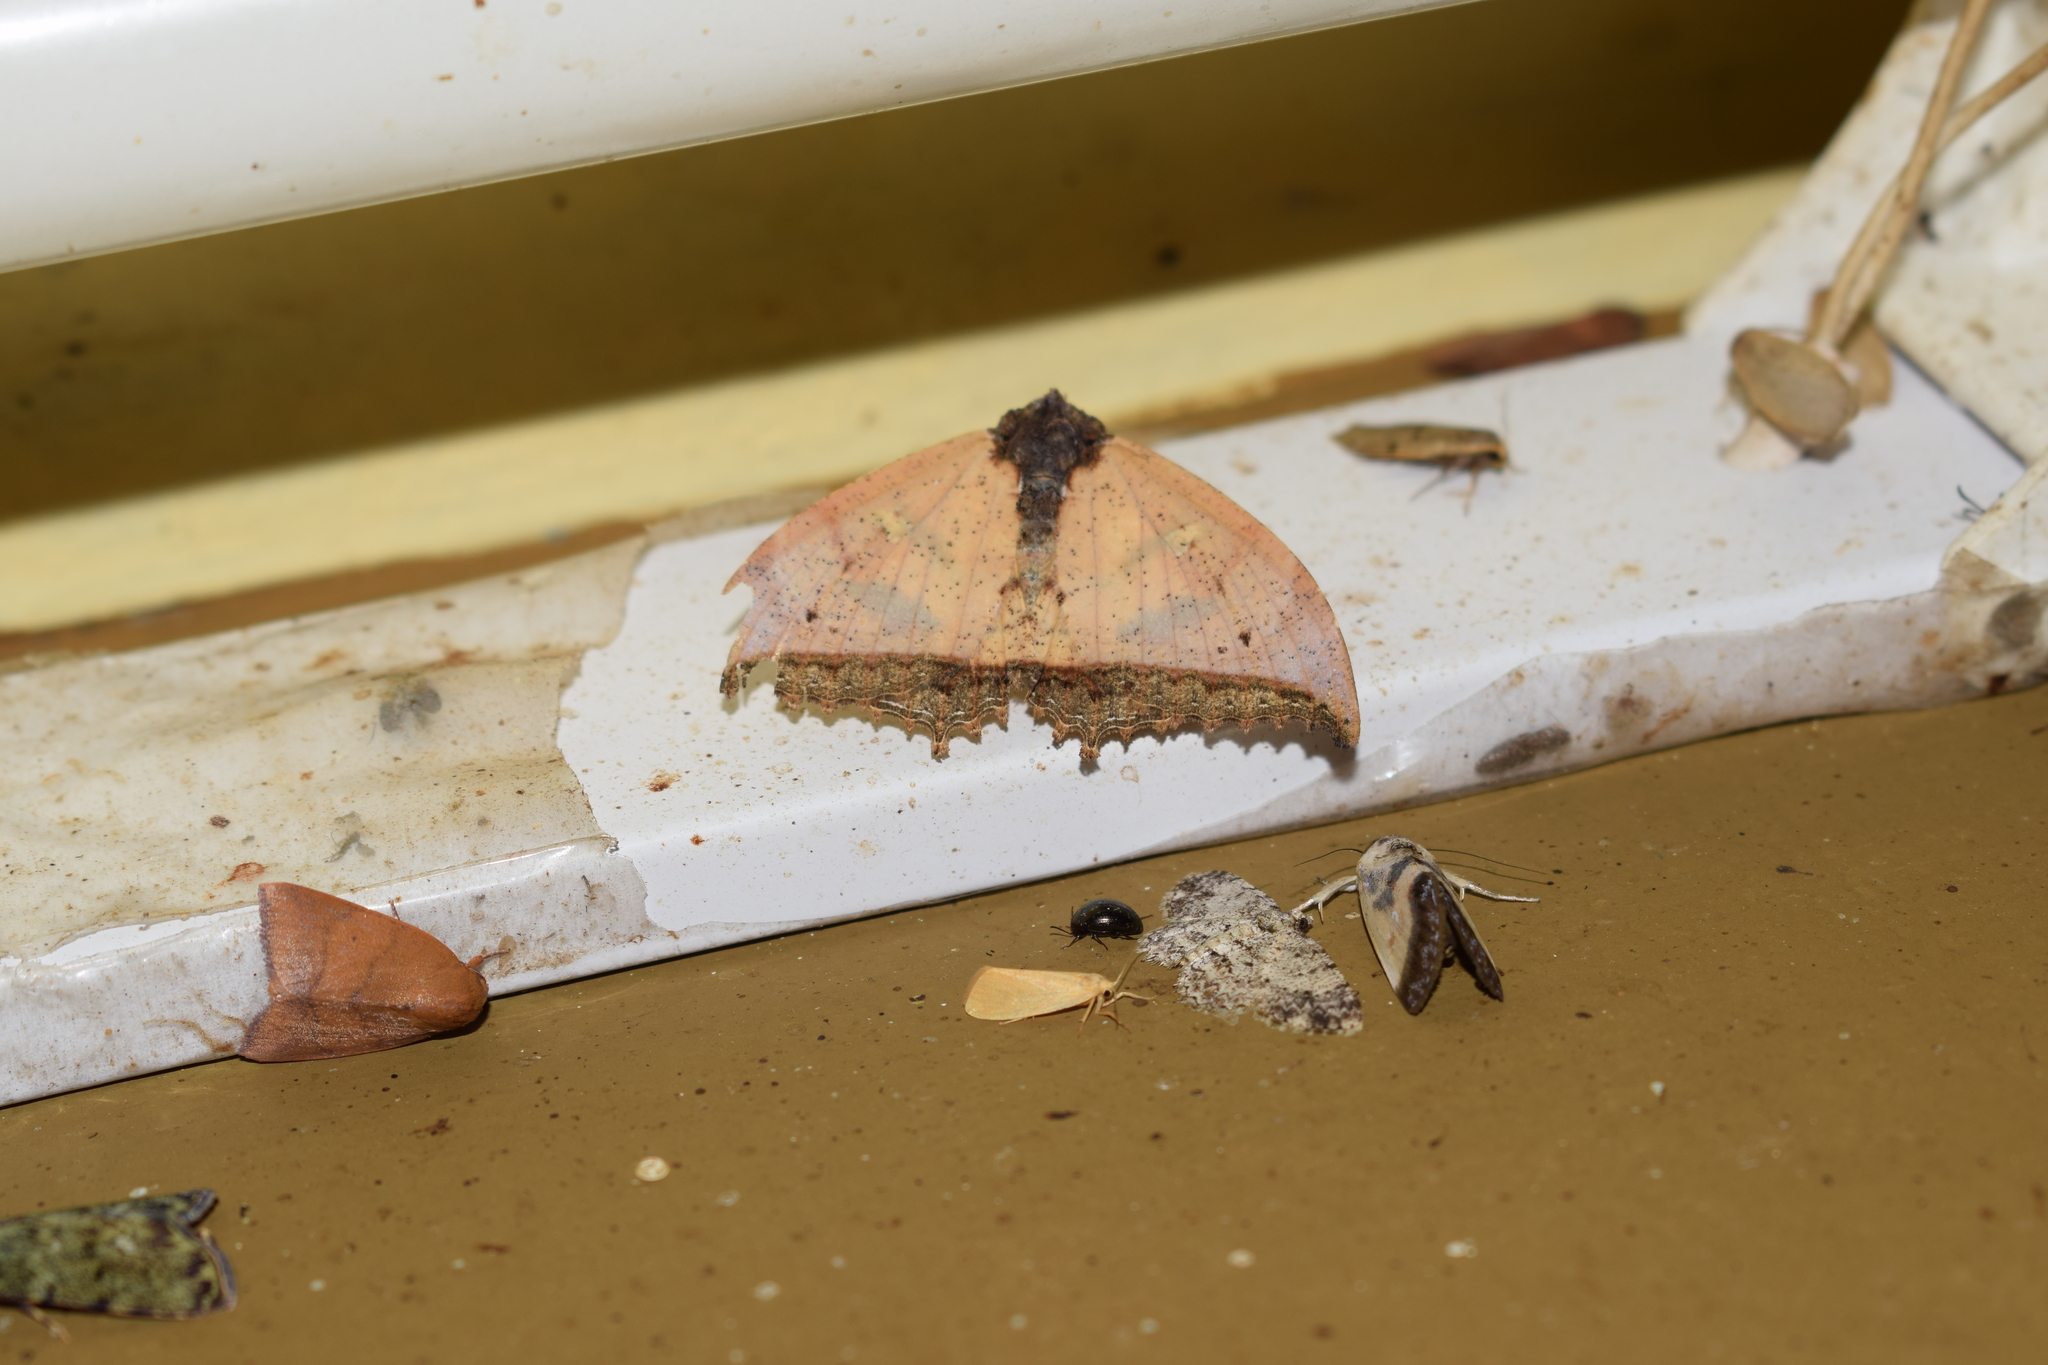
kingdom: Animalia
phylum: Arthropoda
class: Insecta
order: Lepidoptera
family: Erebidae
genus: Pterocyclophora
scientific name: Pterocyclophora pictimargo
